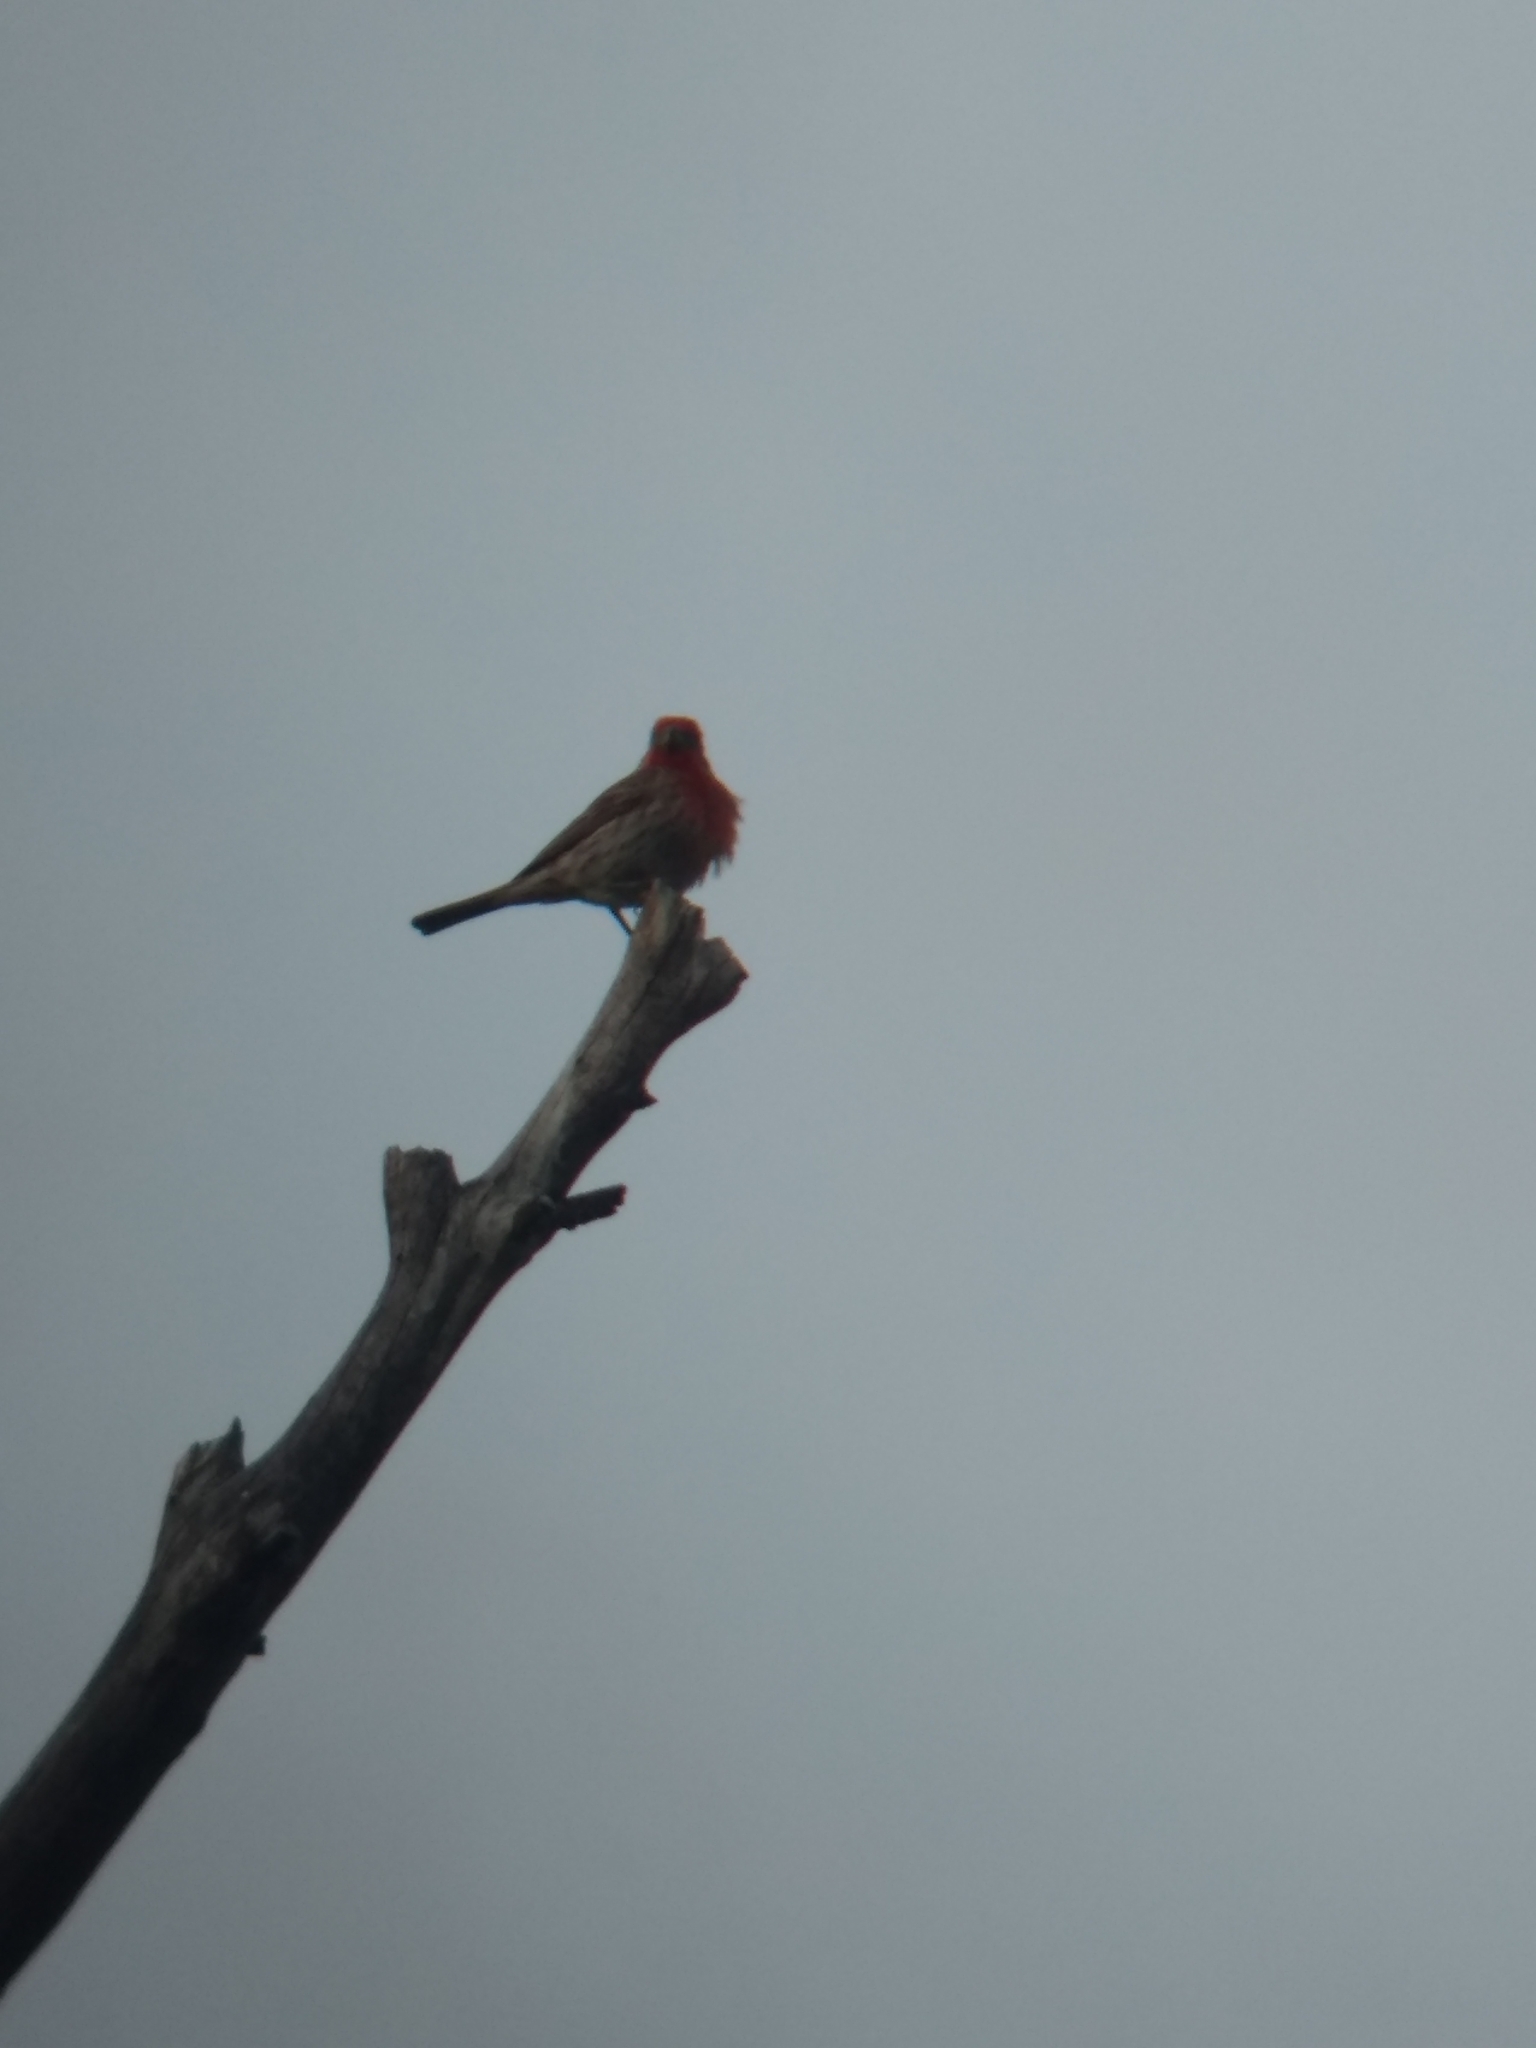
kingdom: Animalia
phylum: Chordata
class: Aves
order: Passeriformes
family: Fringillidae
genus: Haemorhous
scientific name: Haemorhous mexicanus
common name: House finch
